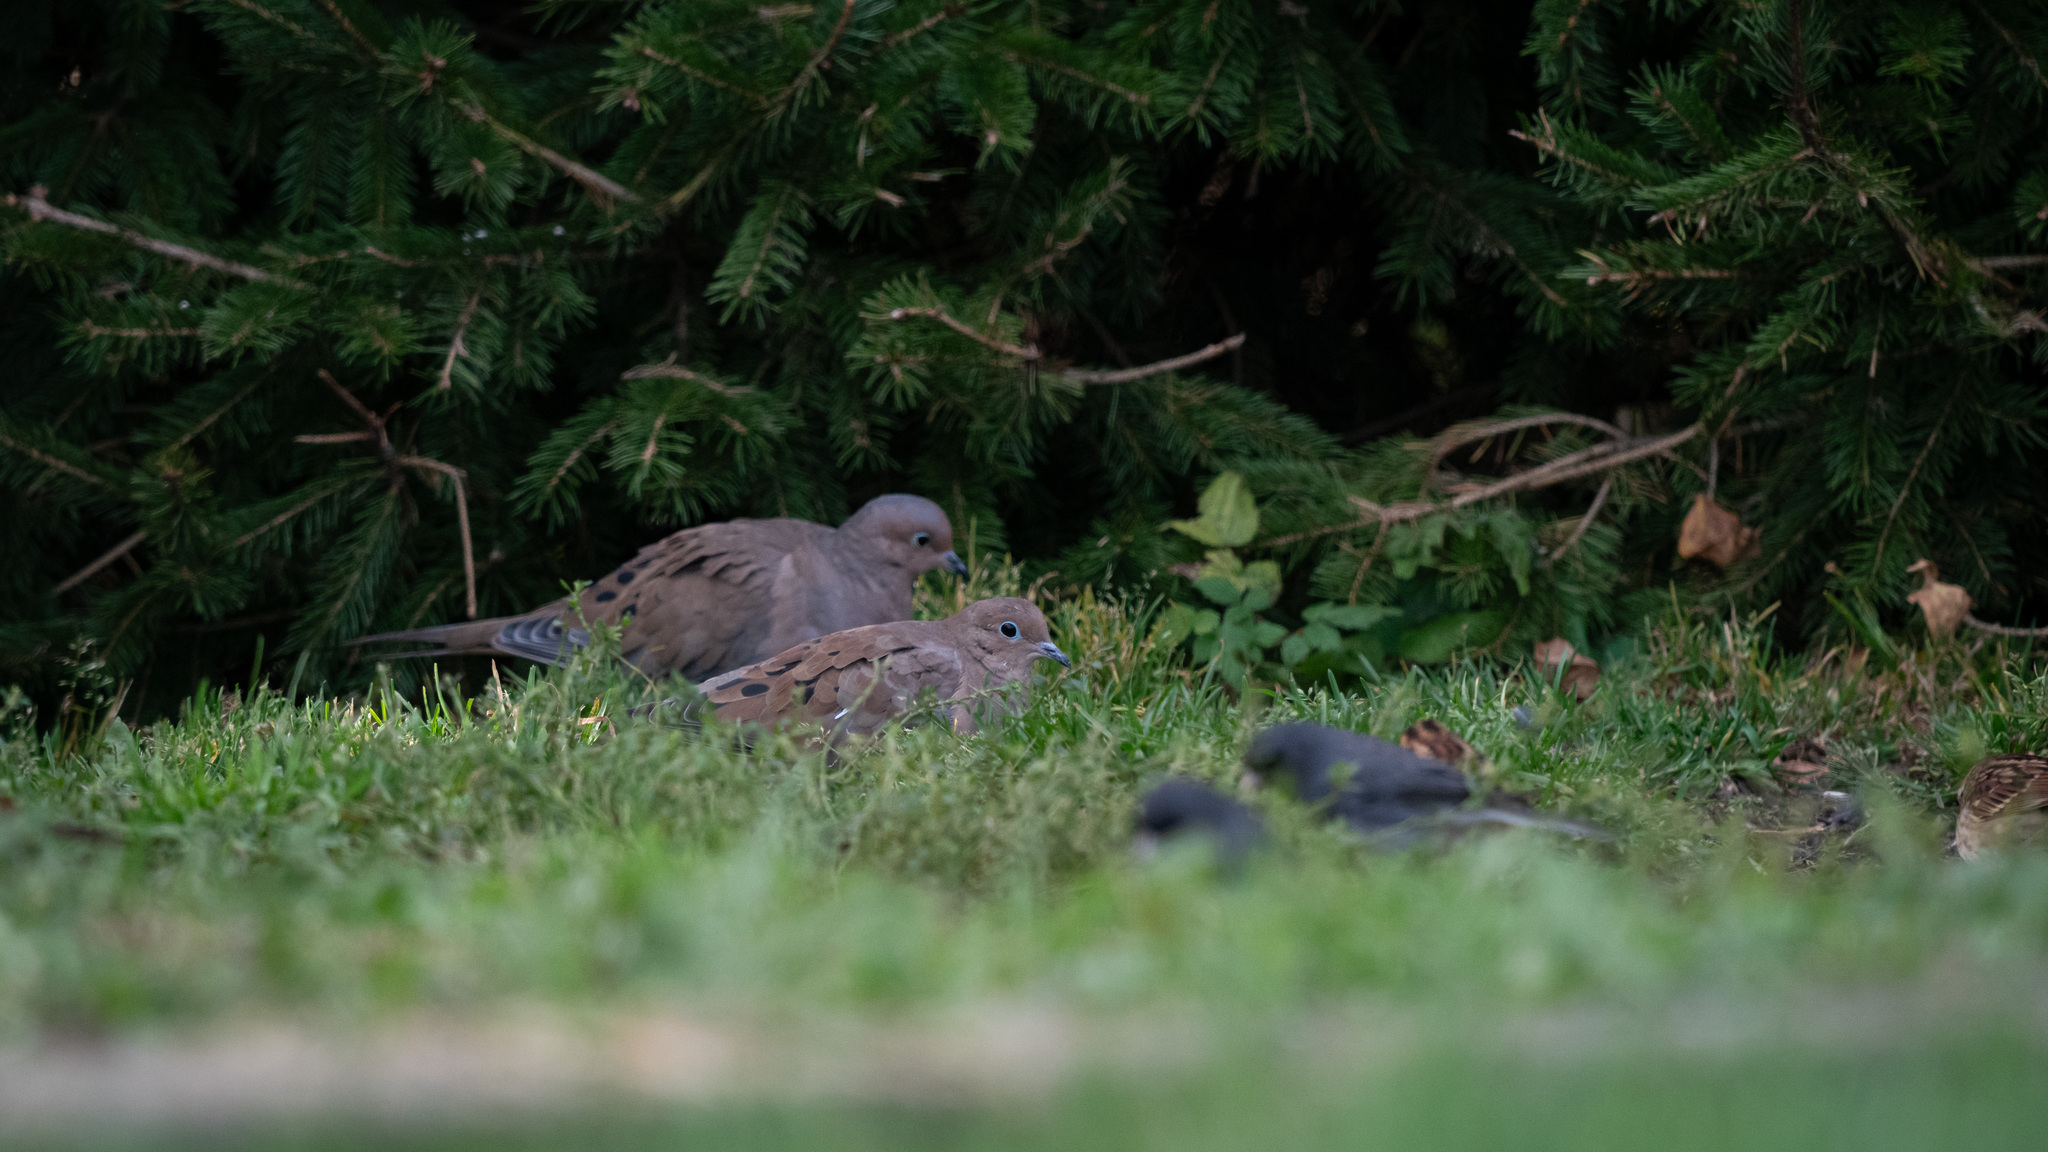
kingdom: Animalia
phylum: Chordata
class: Aves
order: Columbiformes
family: Columbidae
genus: Zenaida
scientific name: Zenaida macroura
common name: Mourning dove
